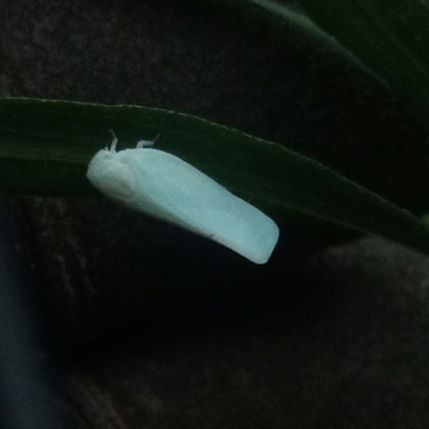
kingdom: Animalia
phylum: Arthropoda
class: Insecta
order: Hemiptera
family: Flatidae
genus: Flatormenis
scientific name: Flatormenis proxima
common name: Northern flatid planthopper
